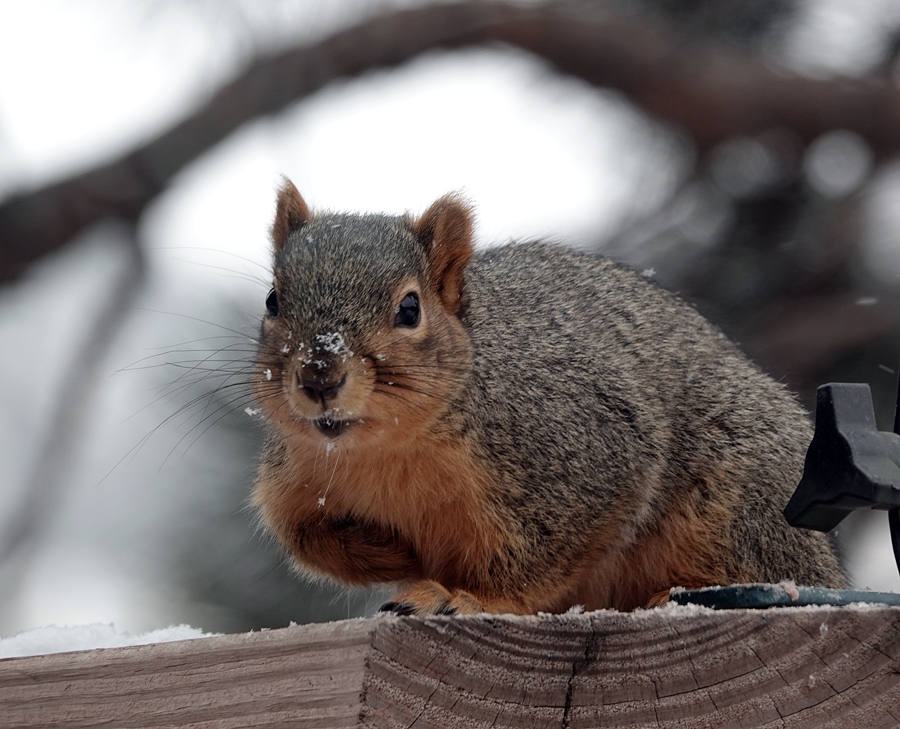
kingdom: Animalia
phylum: Chordata
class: Mammalia
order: Rodentia
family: Sciuridae
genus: Sciurus
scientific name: Sciurus niger
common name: Fox squirrel
